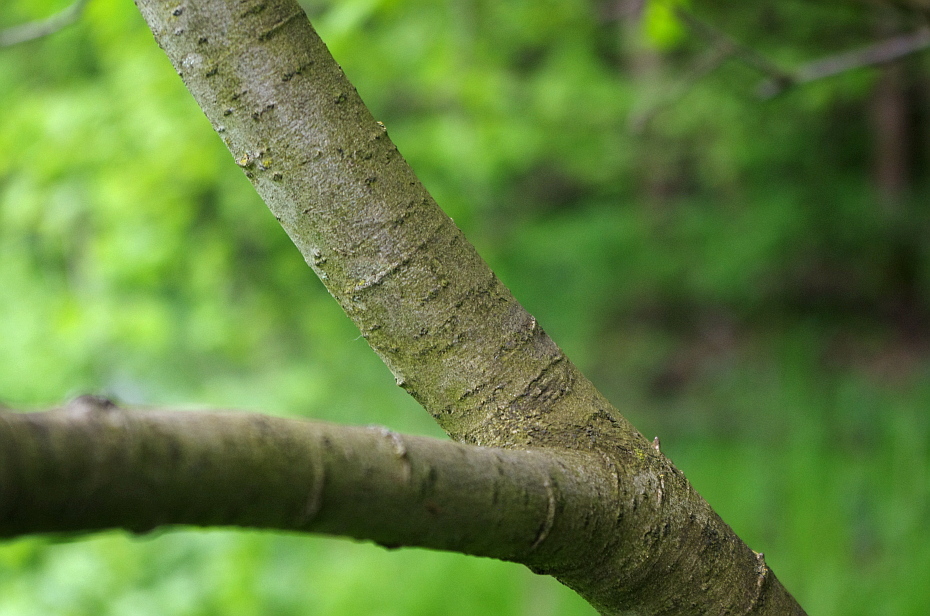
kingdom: Plantae
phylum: Tracheophyta
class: Magnoliopsida
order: Malpighiales
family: Salicaceae
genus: Salix
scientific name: Salix caprea
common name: Goat willow
